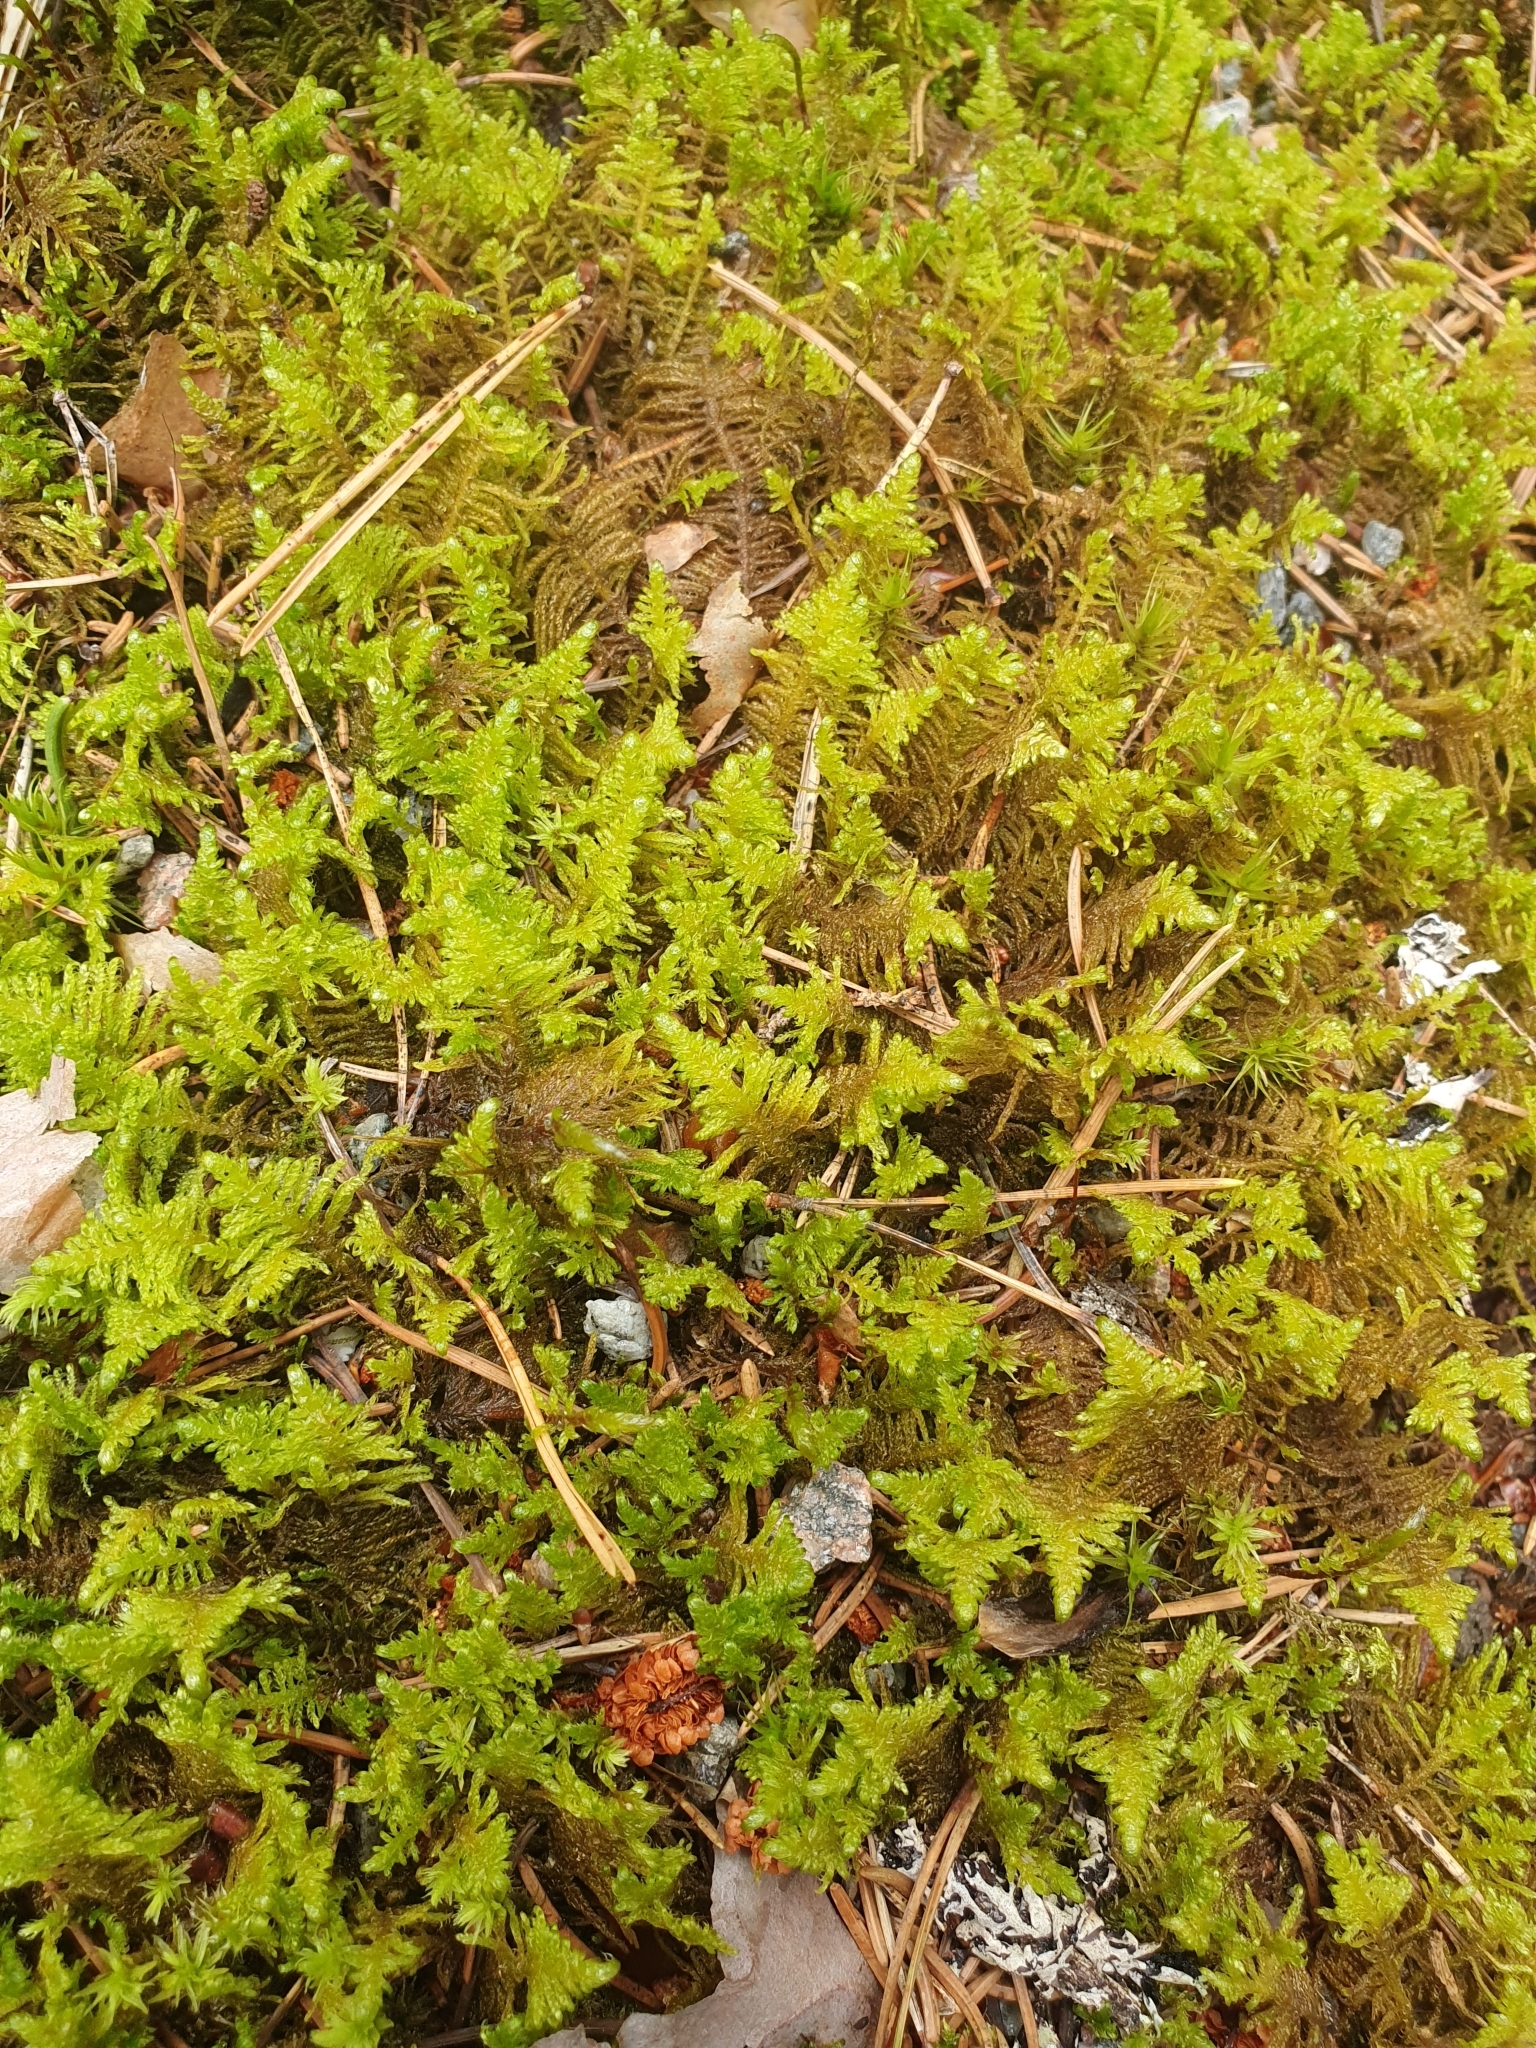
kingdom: Plantae
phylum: Bryophyta
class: Bryopsida
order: Hypnales
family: Pylaisiaceae
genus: Ptilium
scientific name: Ptilium crista-castrensis
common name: Knight's plume moss
